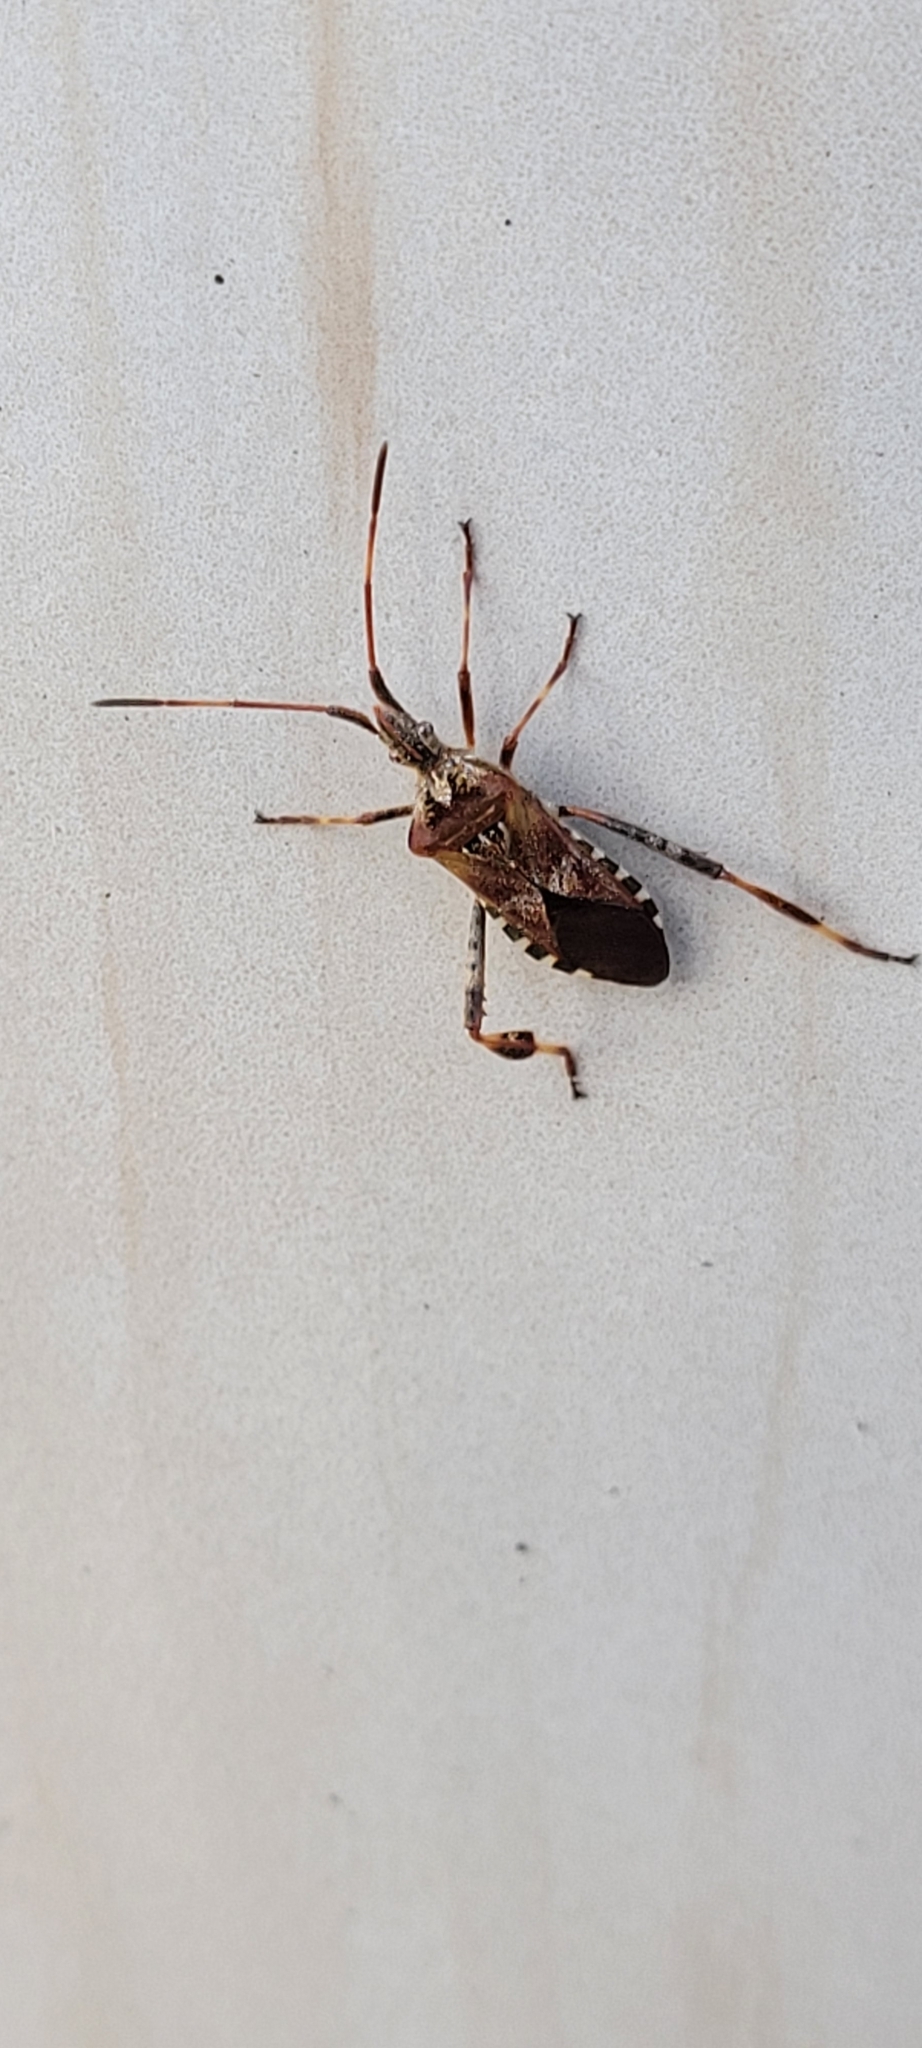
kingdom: Animalia
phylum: Arthropoda
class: Insecta
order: Hemiptera
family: Coreidae
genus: Leptoglossus
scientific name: Leptoglossus occidentalis
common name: Western conifer-seed bug
